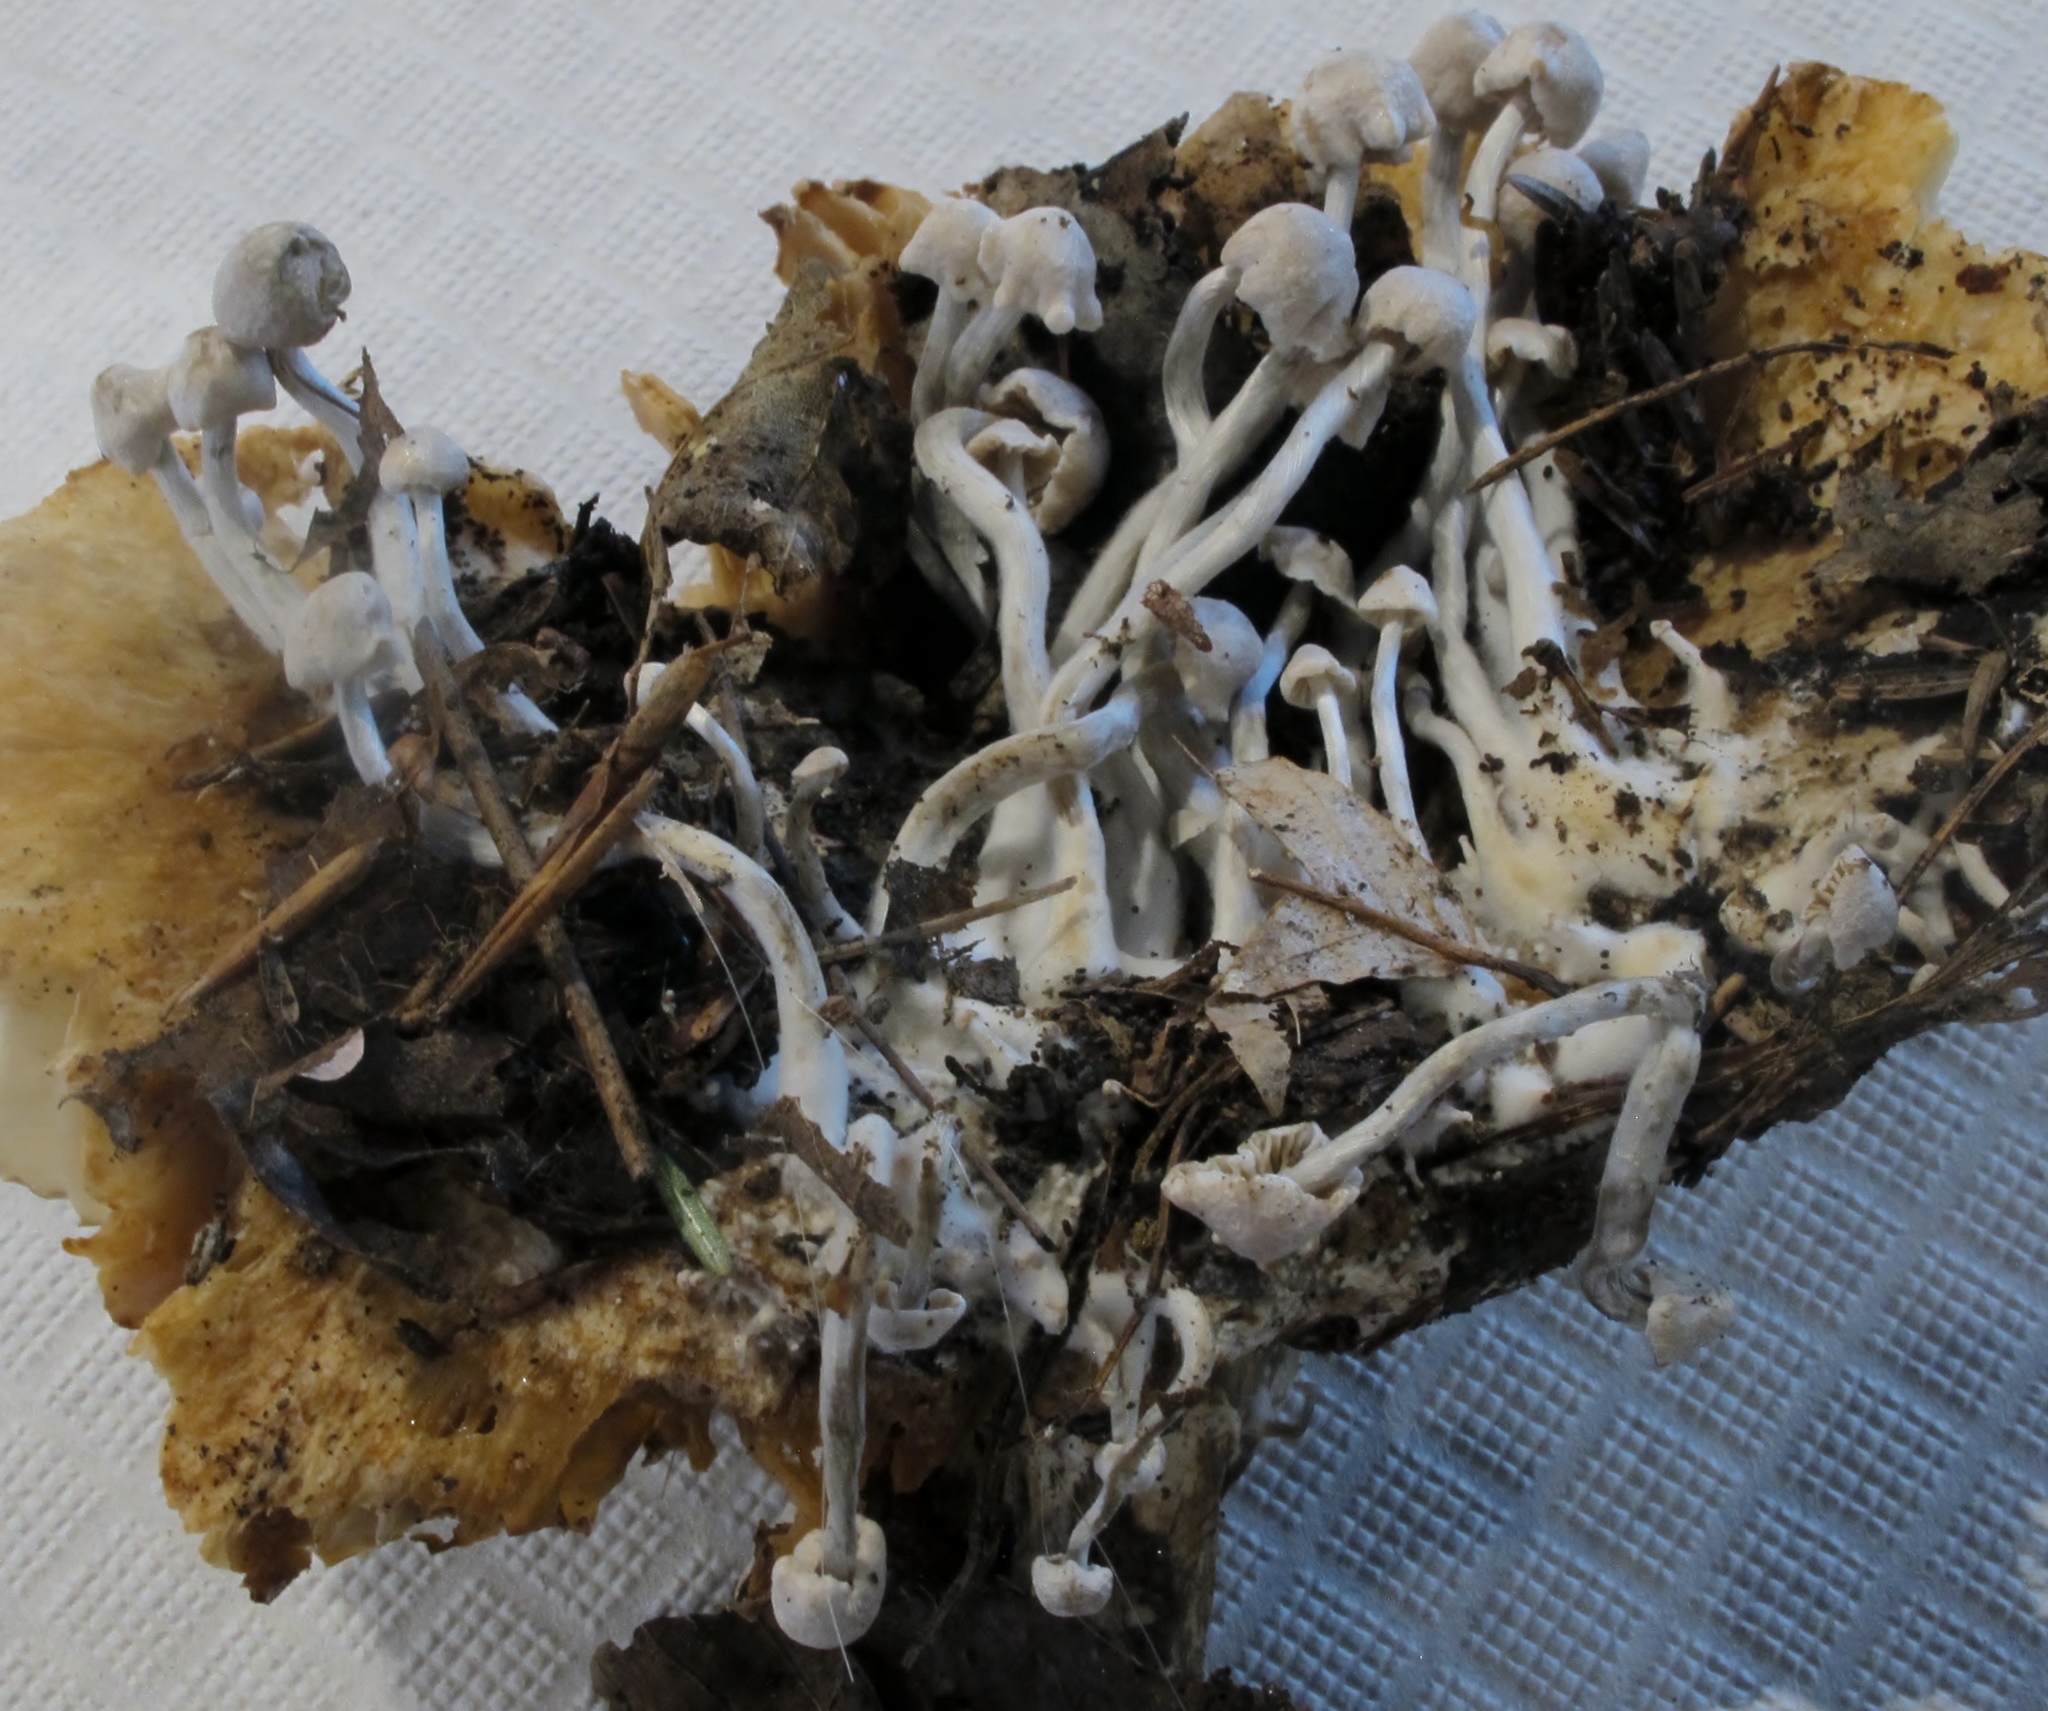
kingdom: Fungi
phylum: Basidiomycota
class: Agaricomycetes
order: Agaricales
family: Lyophyllaceae
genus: Asterophora
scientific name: Asterophora parasitica
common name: Silky piggyback
